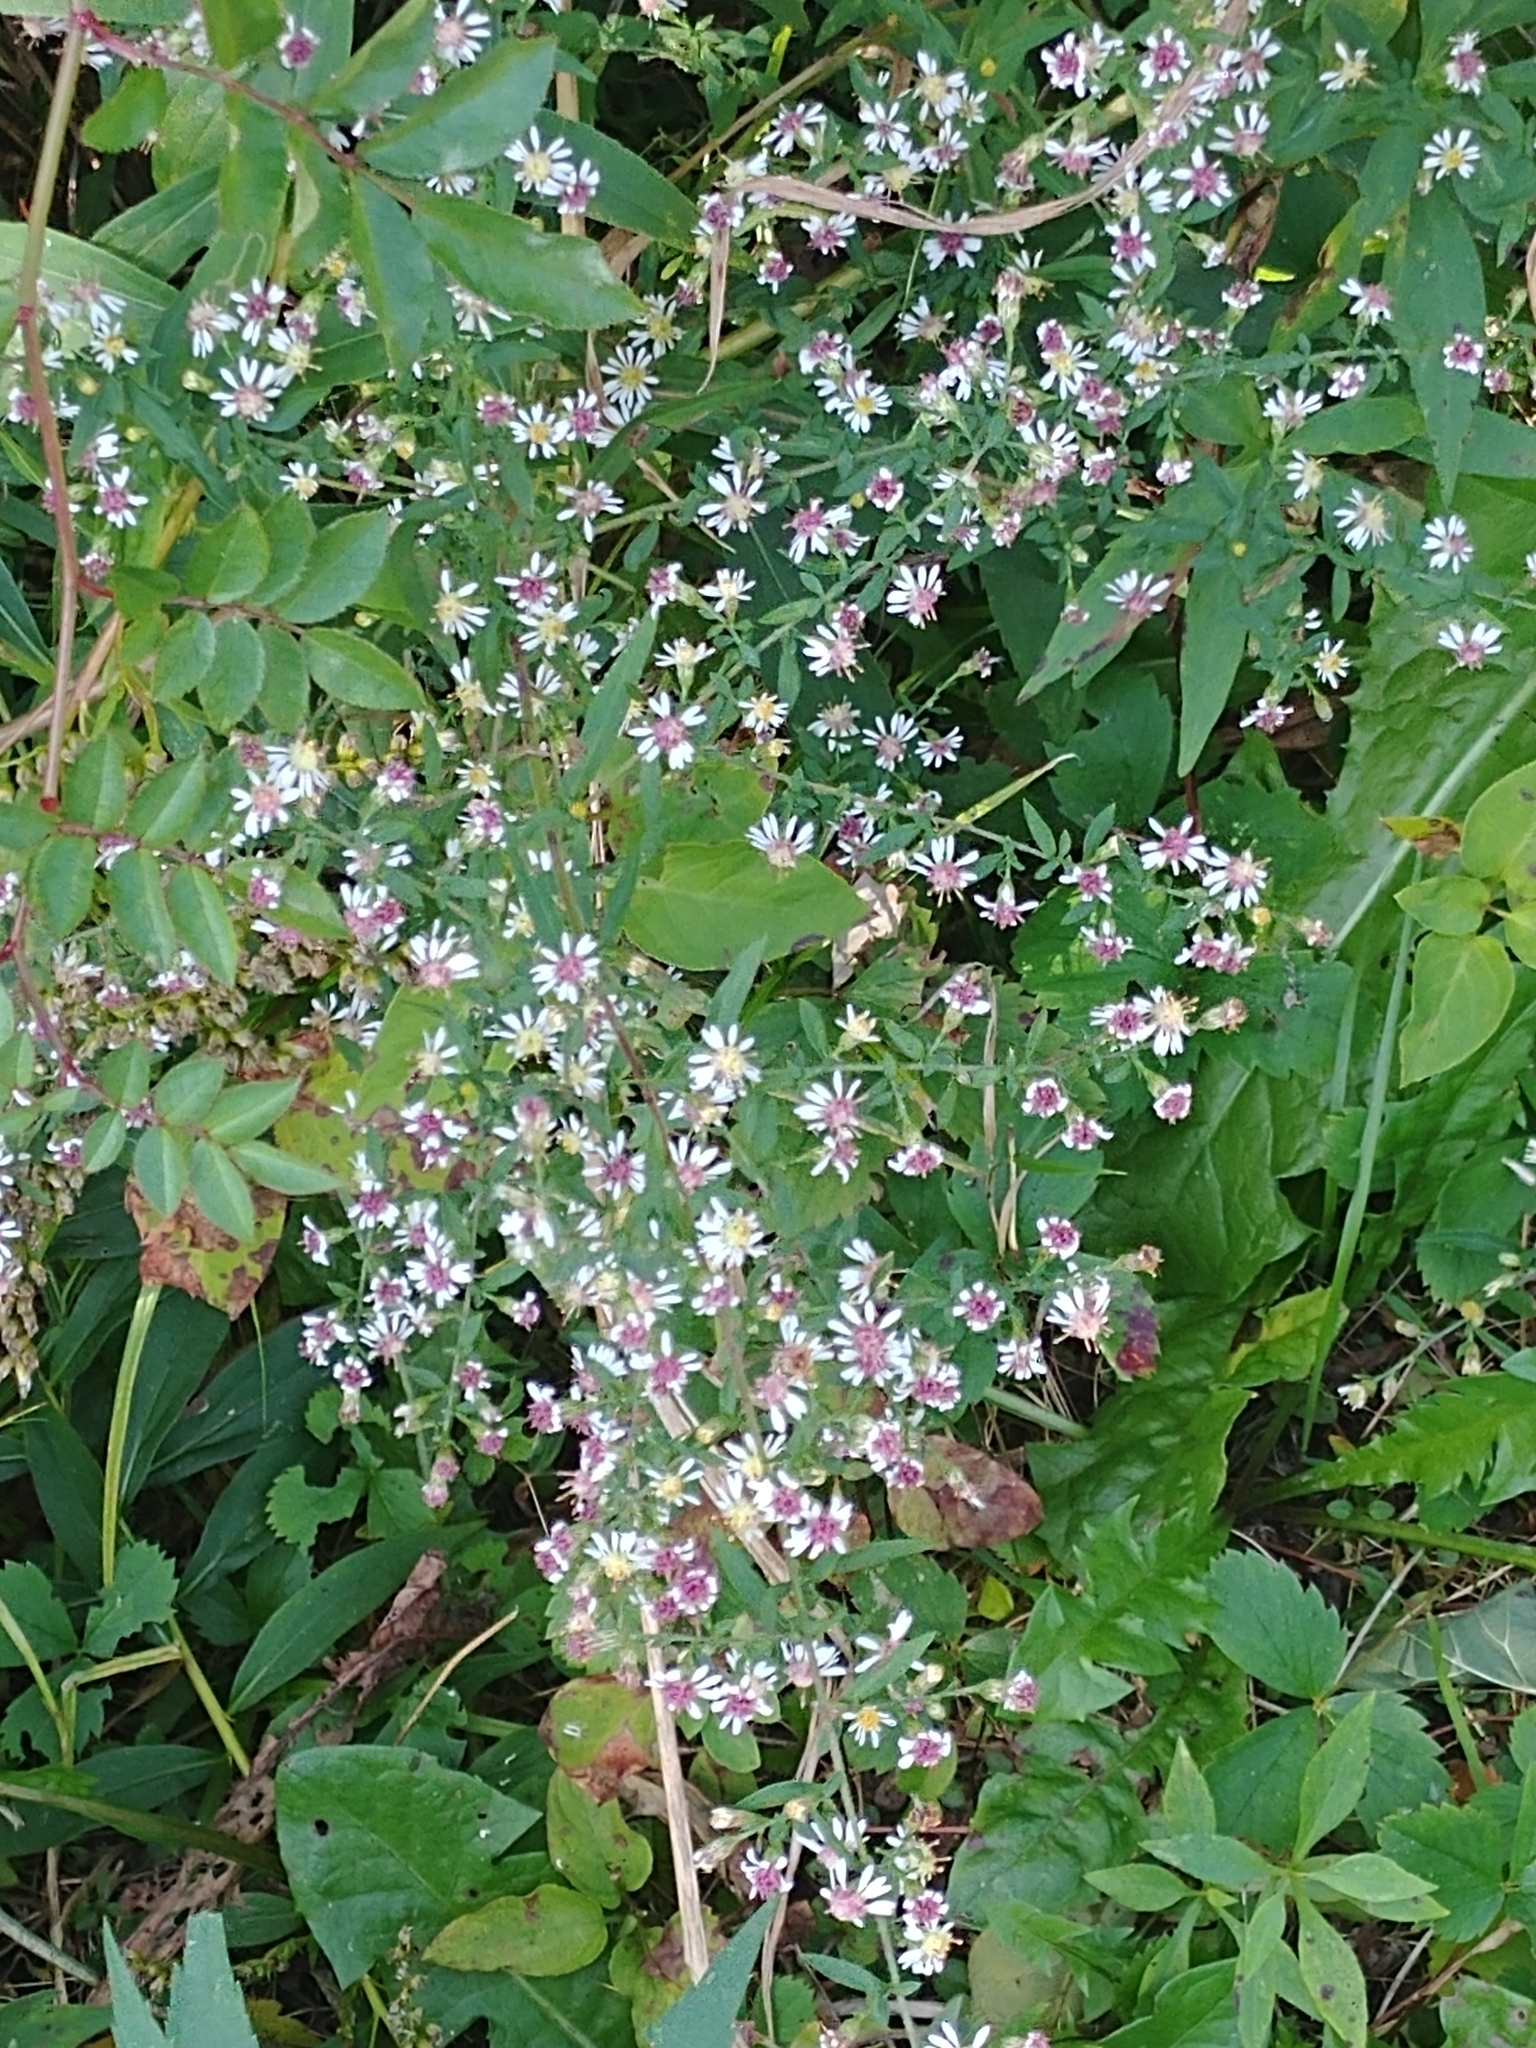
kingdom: Plantae
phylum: Tracheophyta
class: Magnoliopsida
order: Asterales
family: Asteraceae
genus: Symphyotrichum
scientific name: Symphyotrichum lateriflorum
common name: Calico aster
